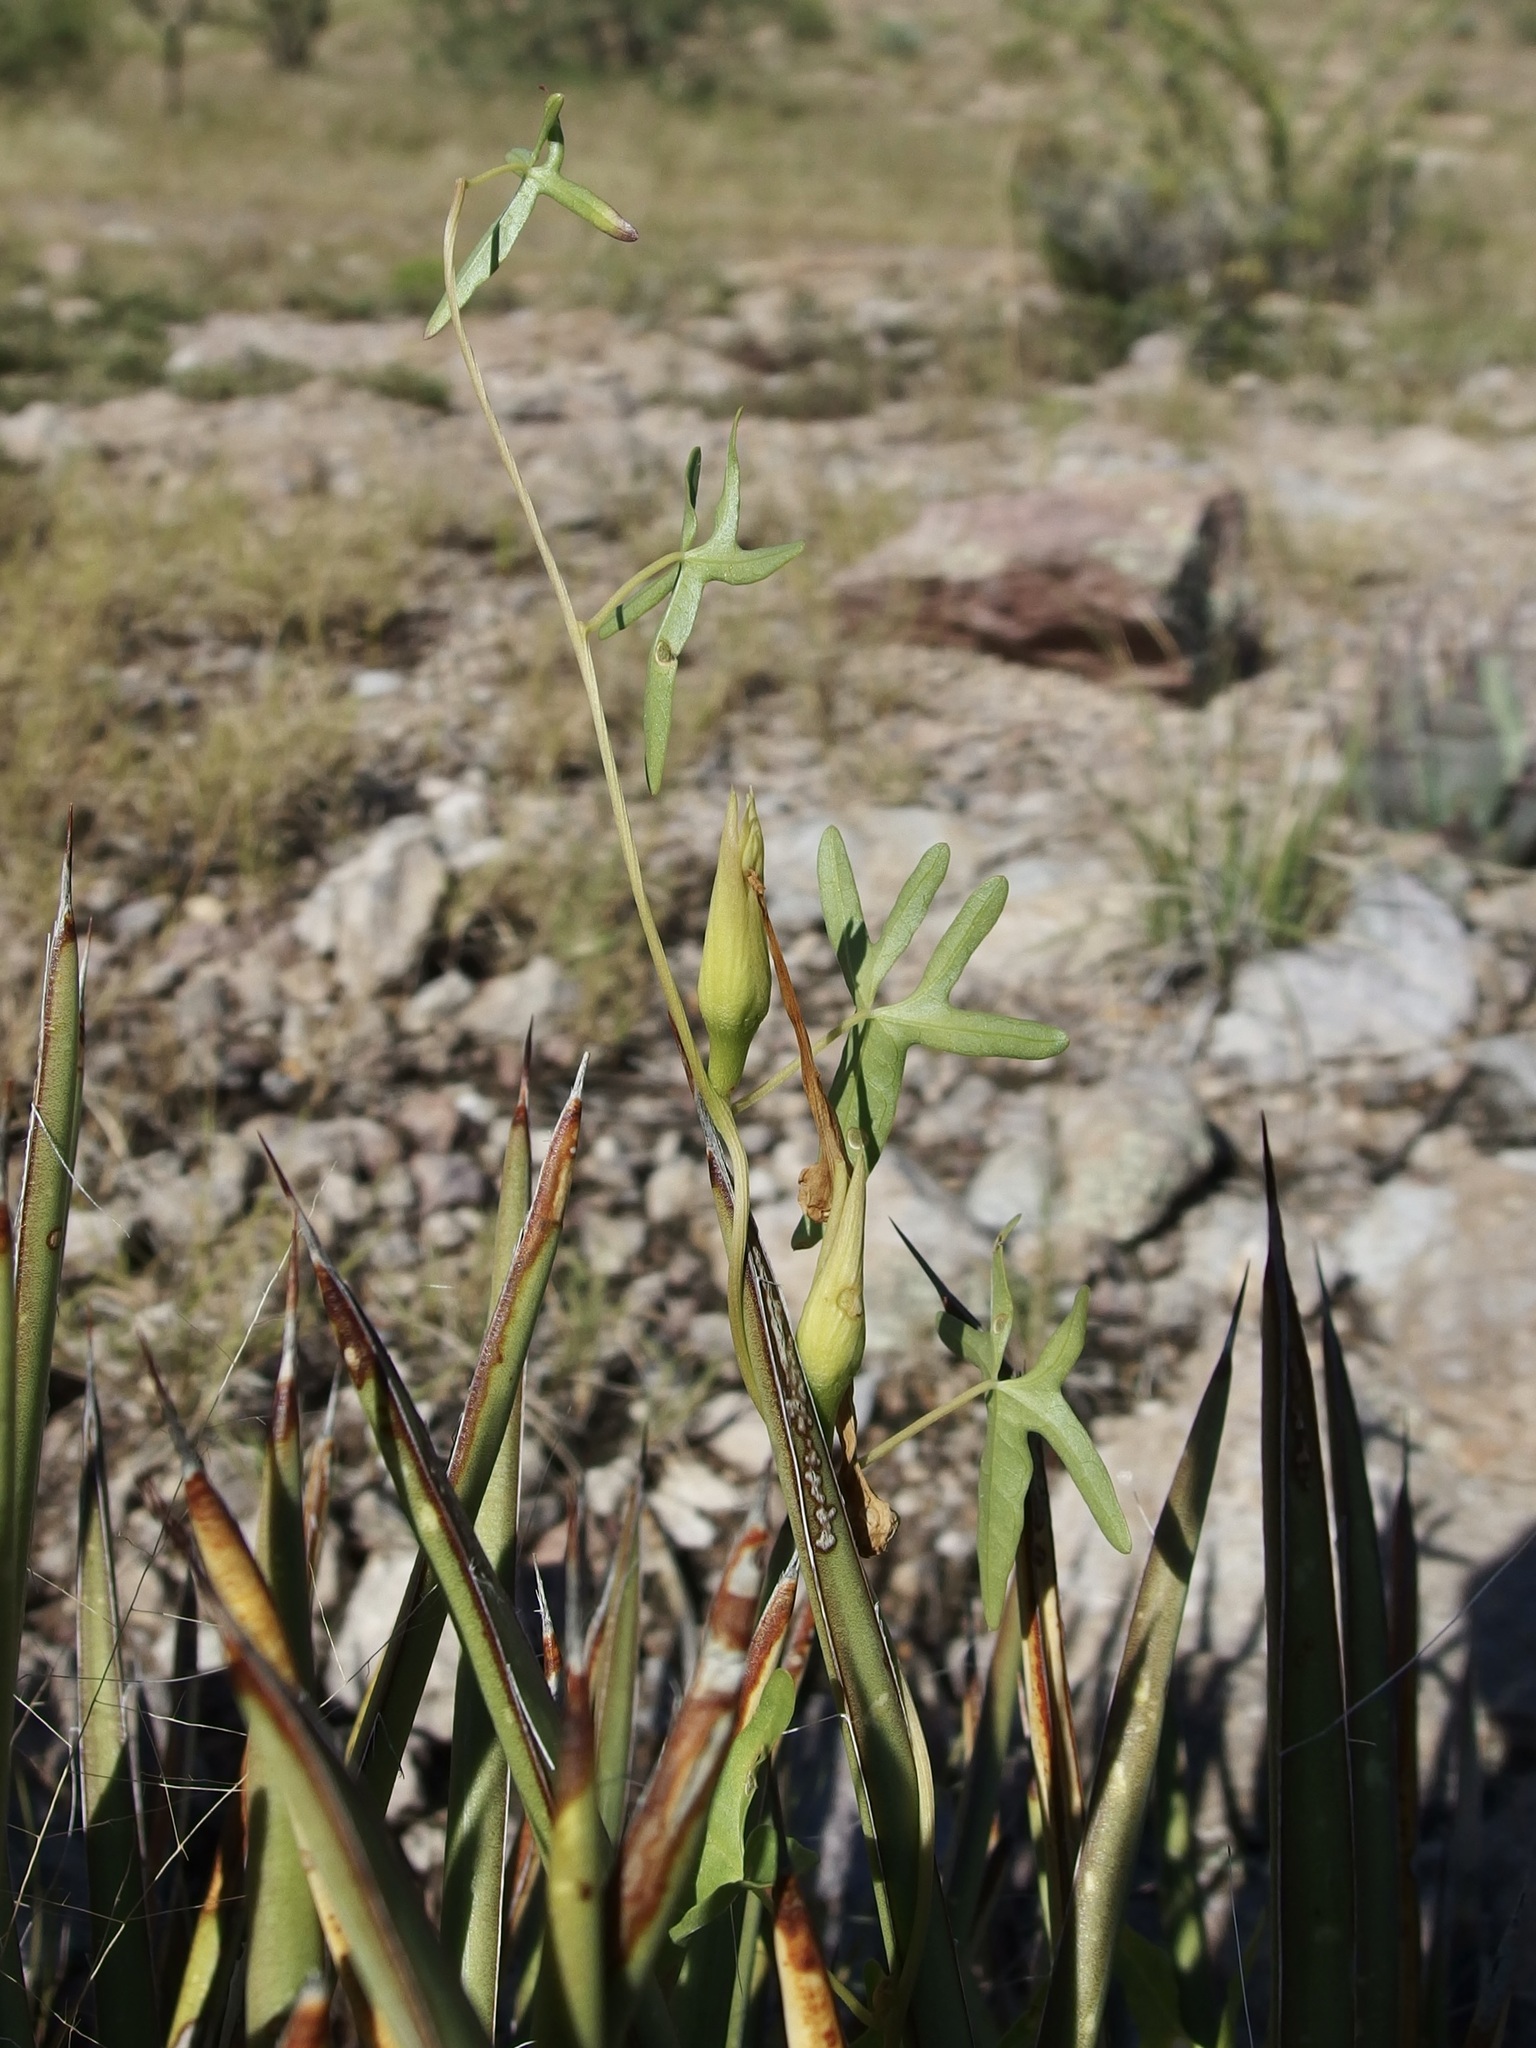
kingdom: Plantae
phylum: Tracheophyta
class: Magnoliopsida
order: Solanales
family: Convolvulaceae
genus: Ipomoea
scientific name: Ipomoea thurberi
